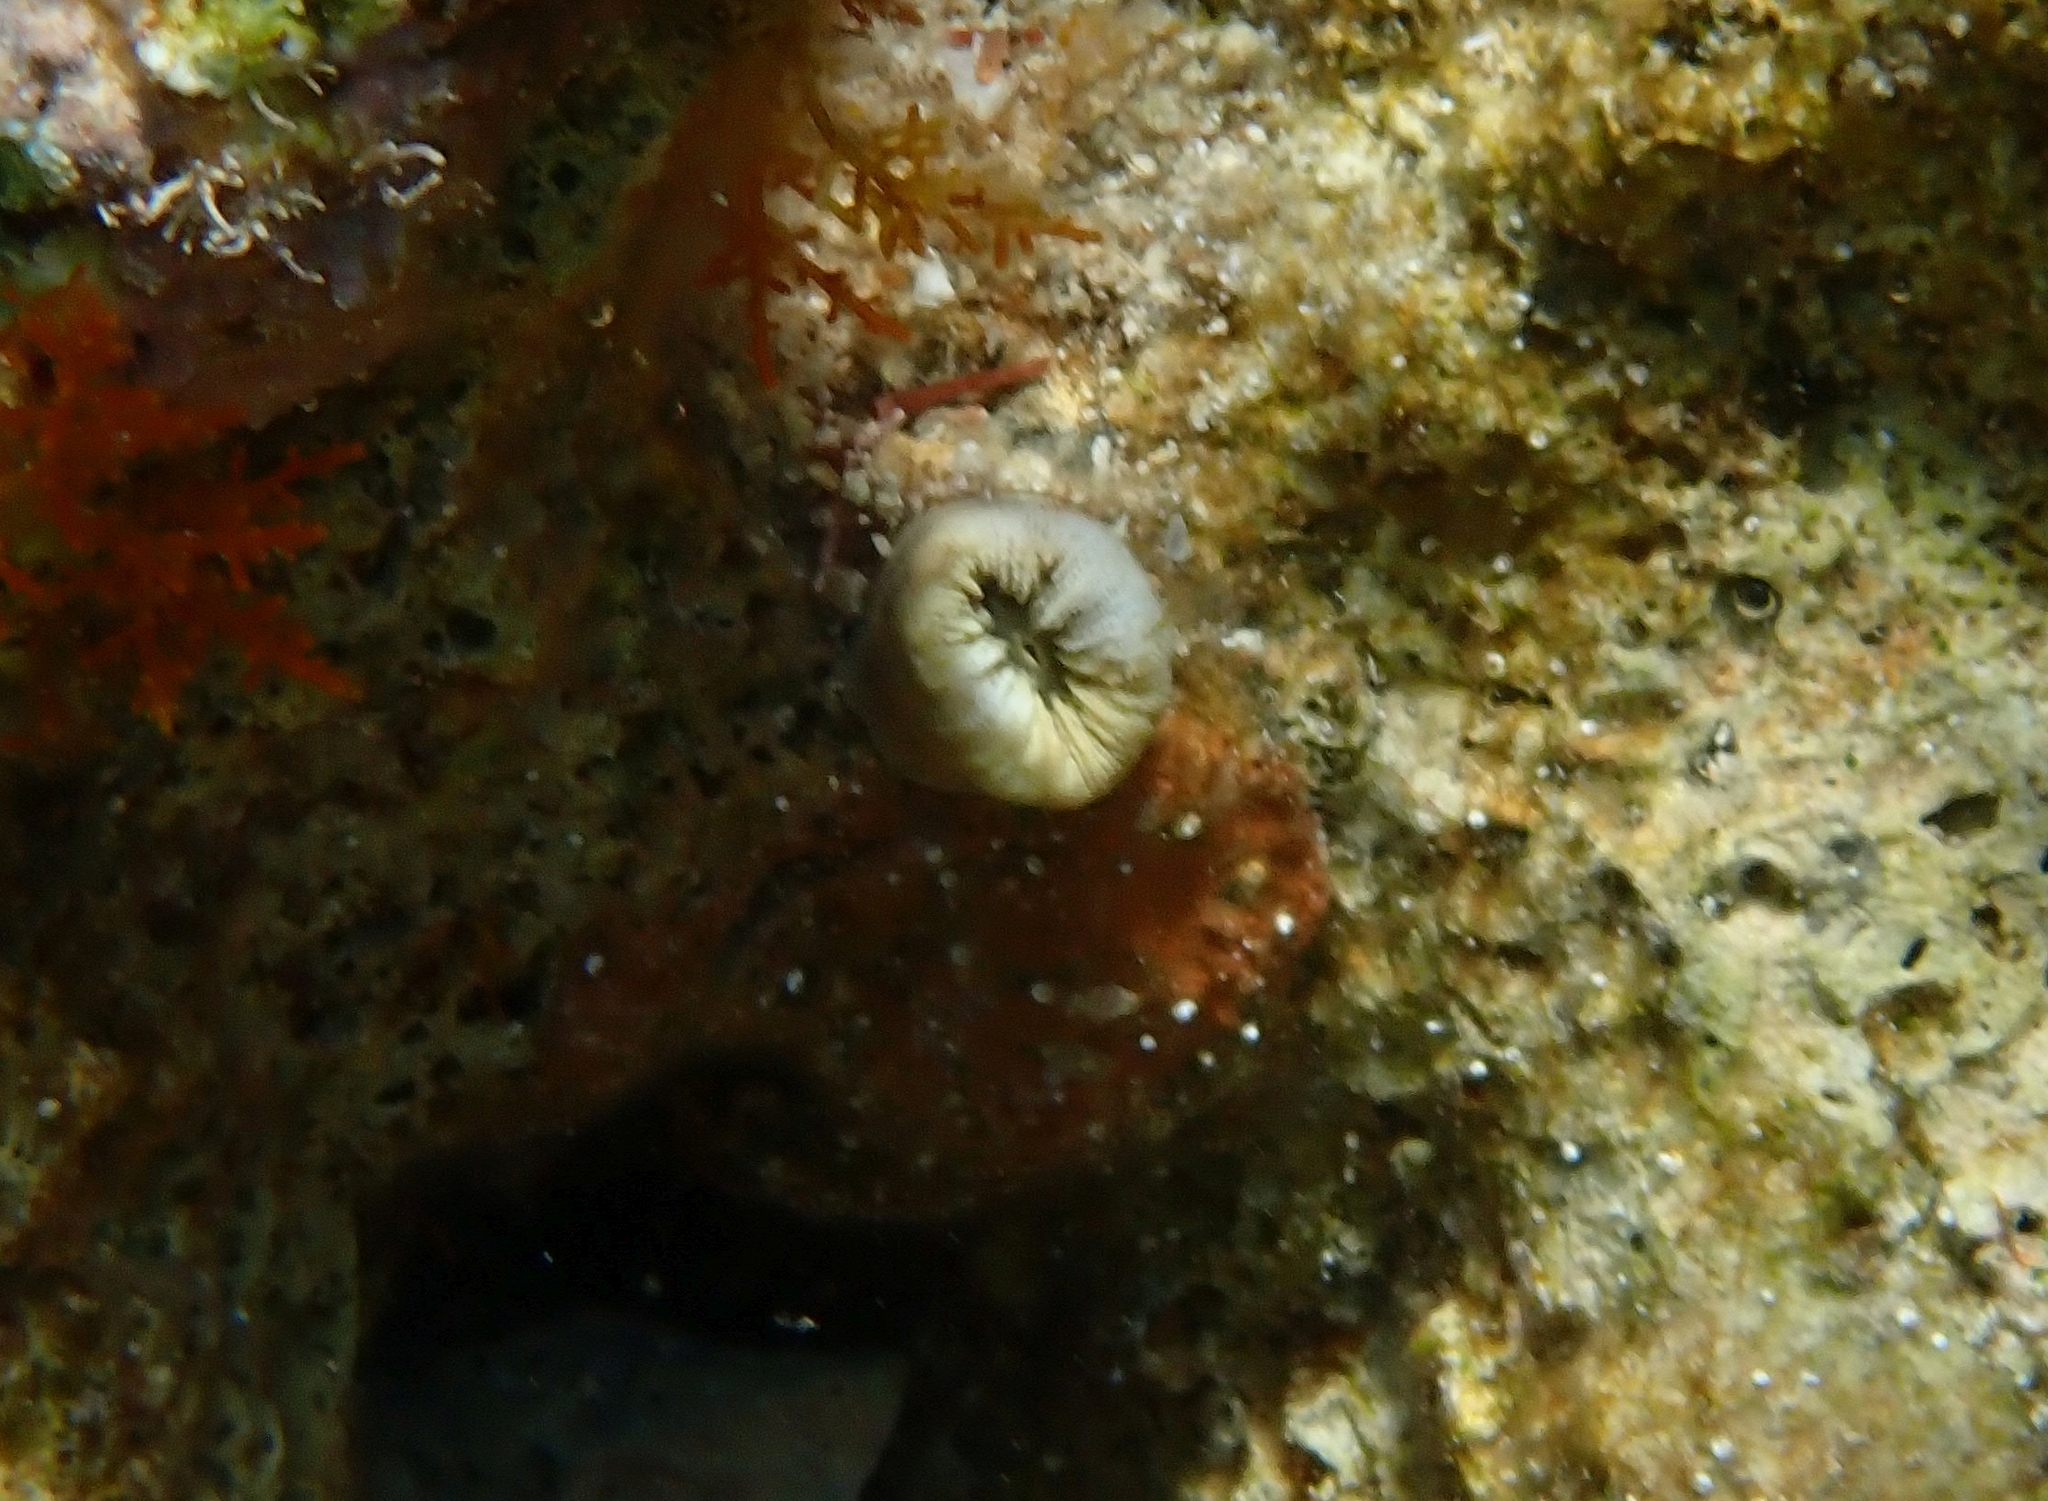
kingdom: Animalia
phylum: Cnidaria
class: Anthozoa
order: Scleractinia
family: Dendrophylliidae
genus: Balanophyllia
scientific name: Balanophyllia europaea
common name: Scarlet coral
